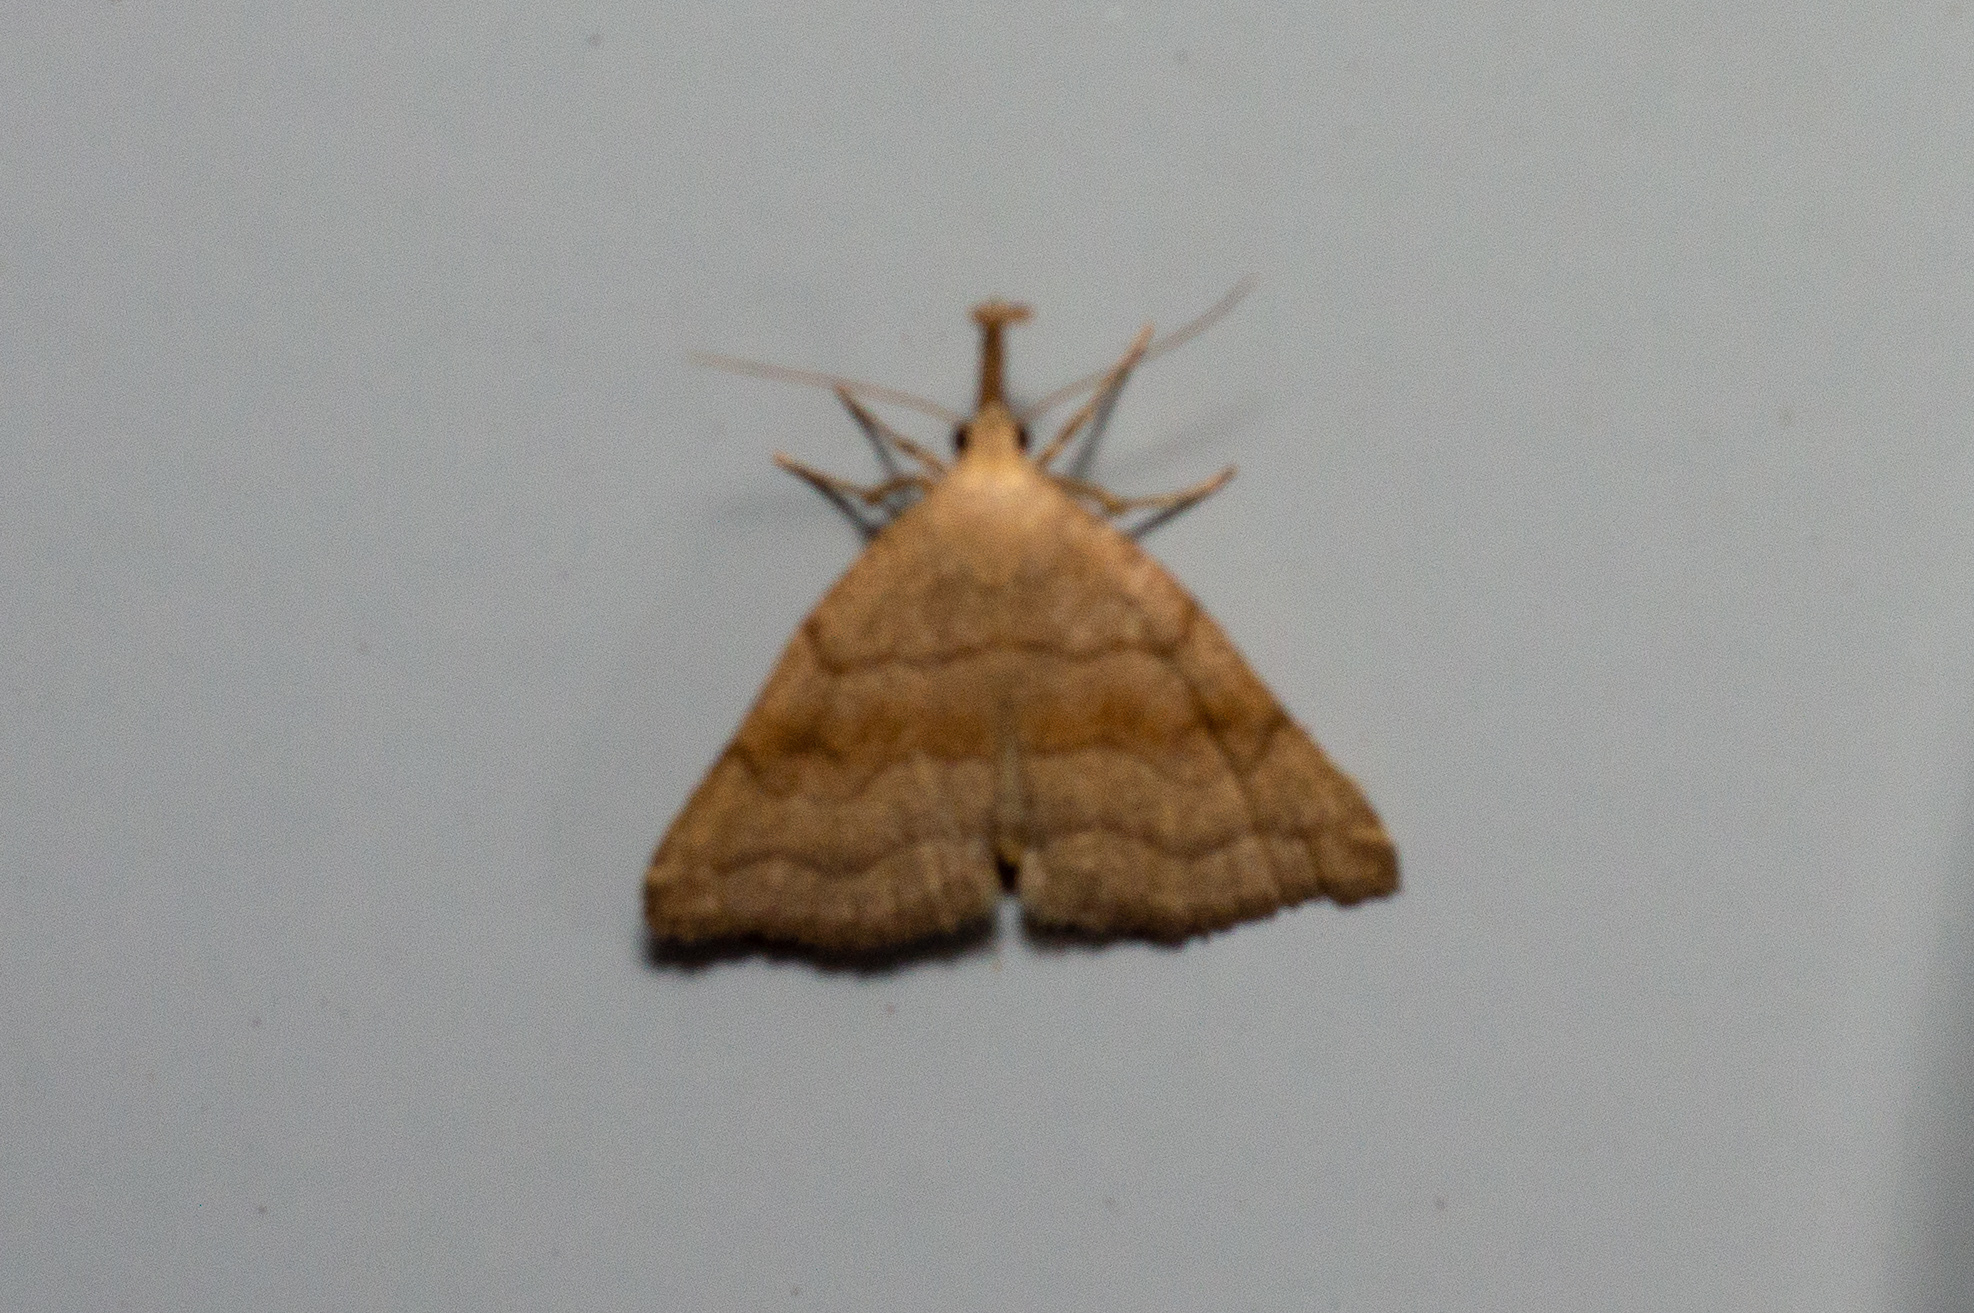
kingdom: Animalia
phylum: Arthropoda
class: Insecta
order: Lepidoptera
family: Erebidae
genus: Phalaenostola
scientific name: Phalaenostola metonalis
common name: Pale phalaenostola moth
